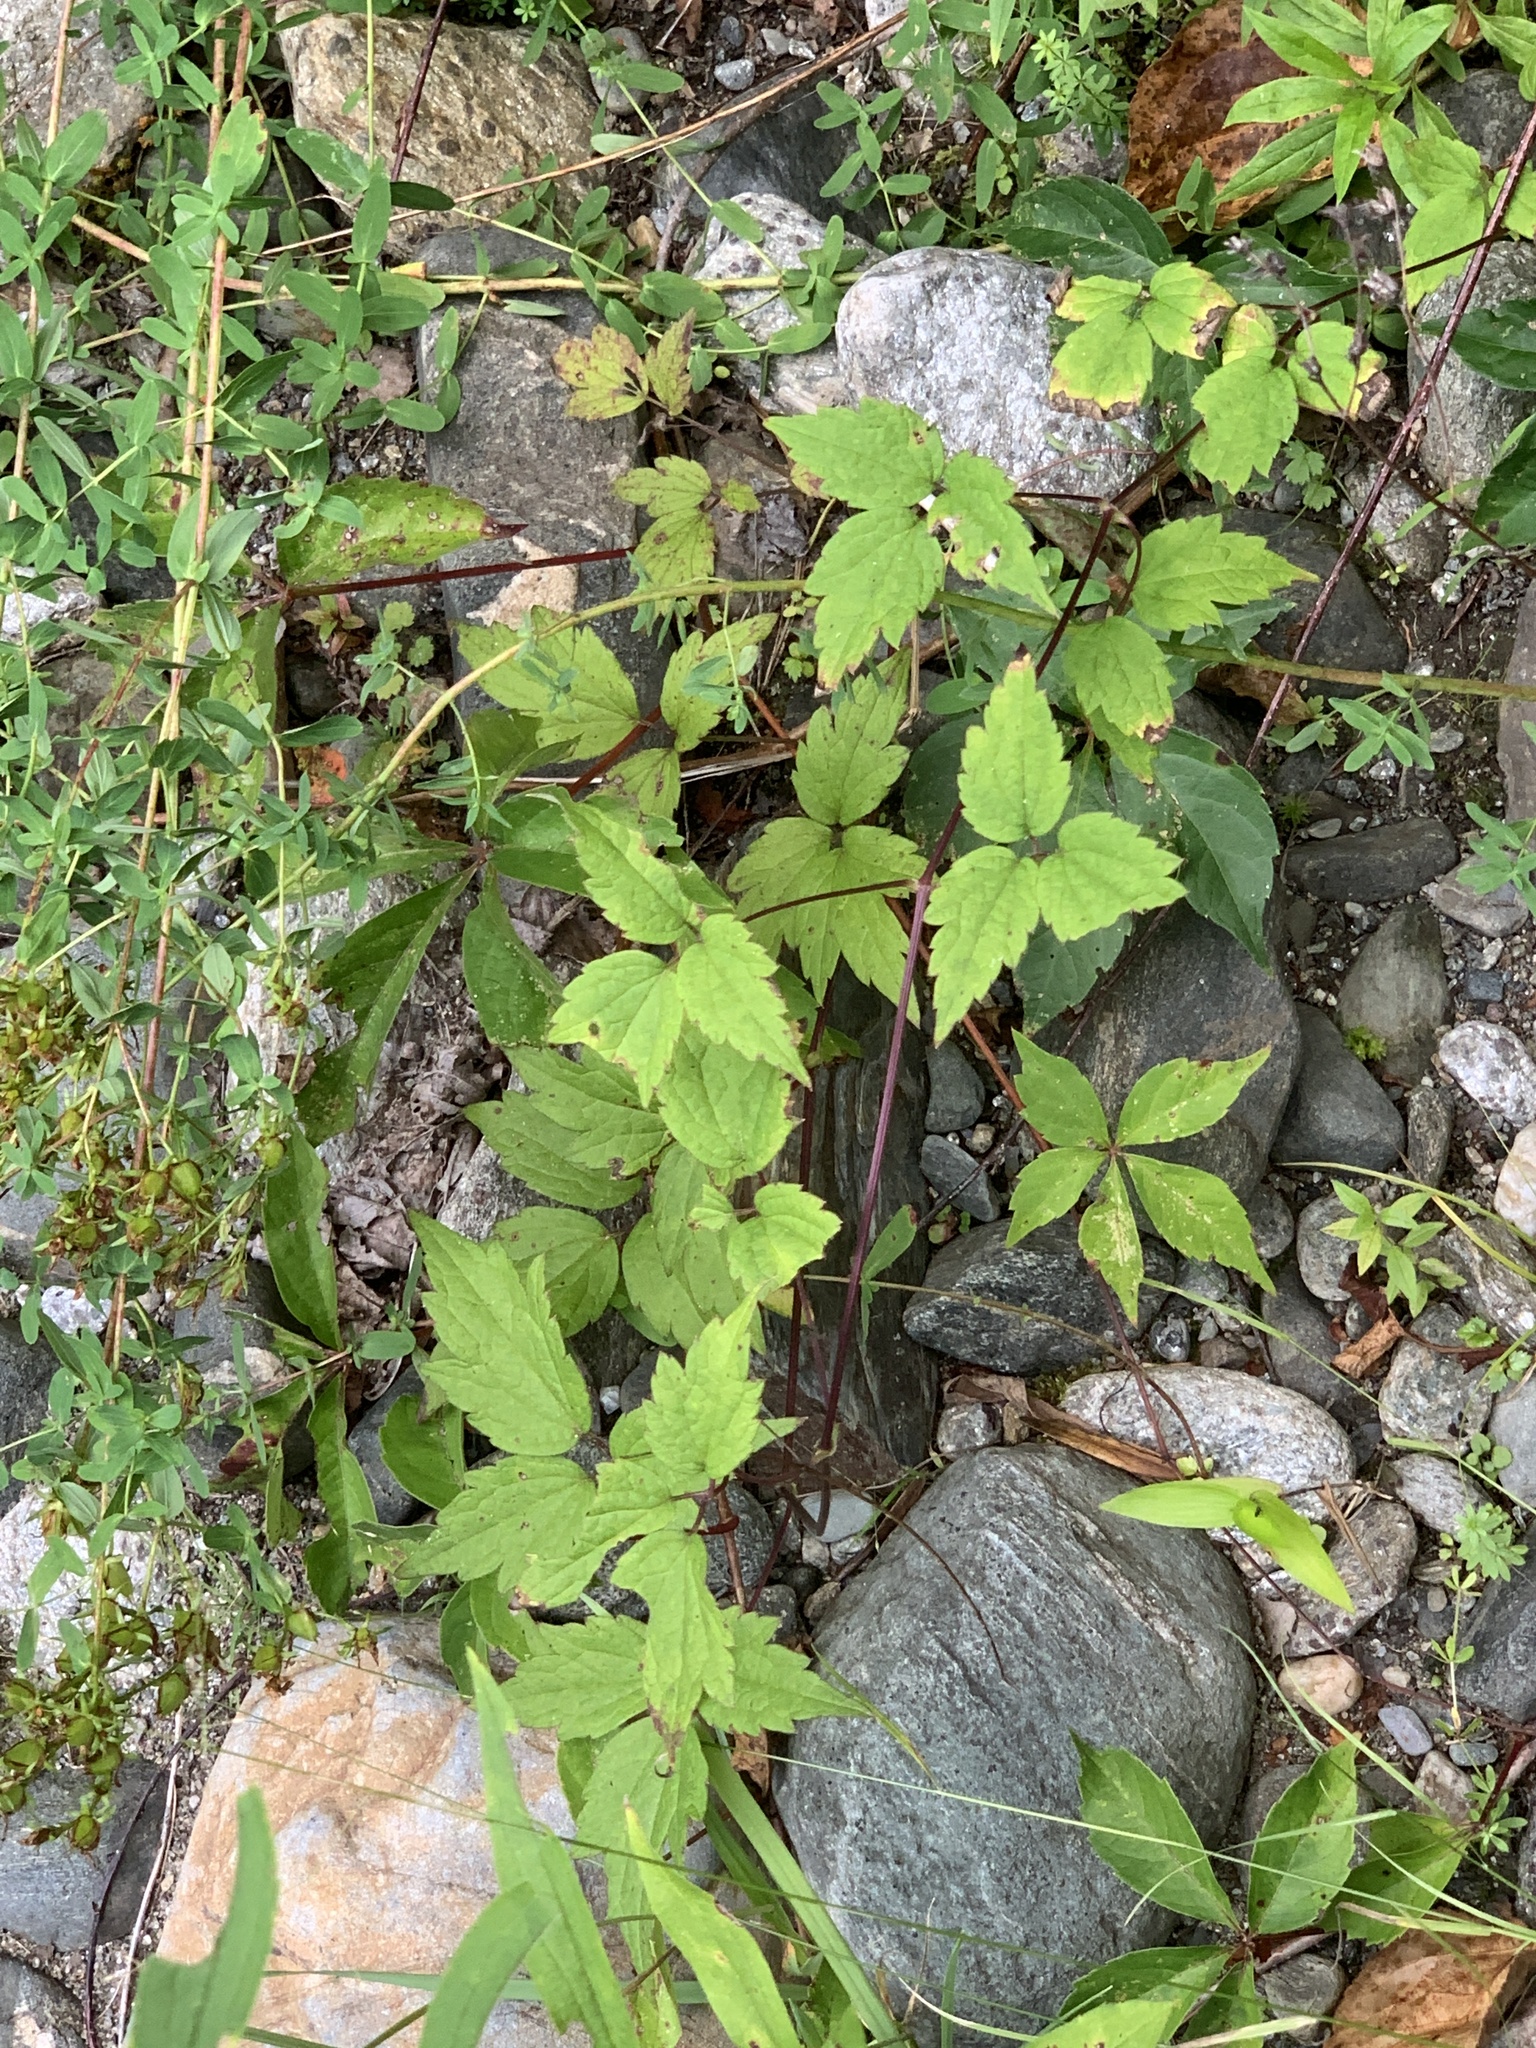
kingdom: Plantae
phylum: Tracheophyta
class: Magnoliopsida
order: Ranunculales
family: Ranunculaceae
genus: Clematis
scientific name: Clematis virginiana
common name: Virgin's-bower
